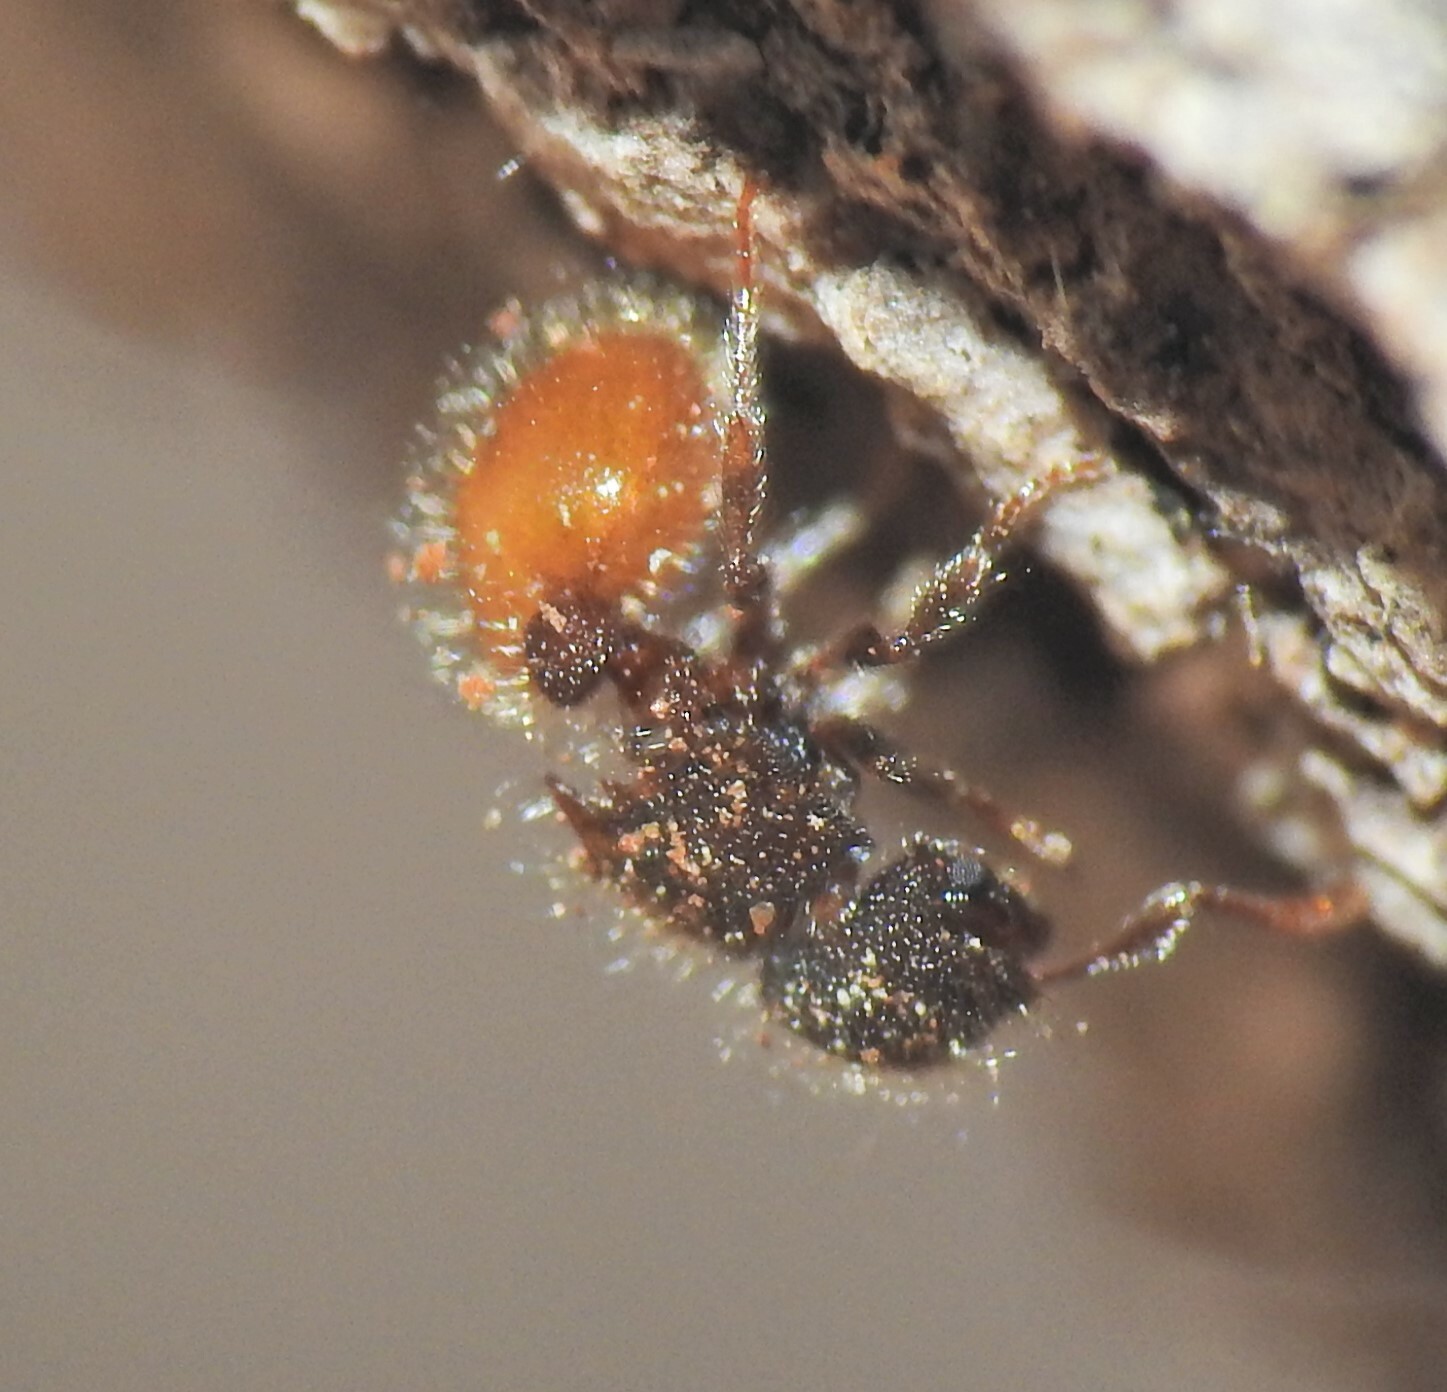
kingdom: Animalia
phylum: Arthropoda
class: Insecta
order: Hymenoptera
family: Formicidae
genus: Meranoplus
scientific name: Meranoplus hirsutus
